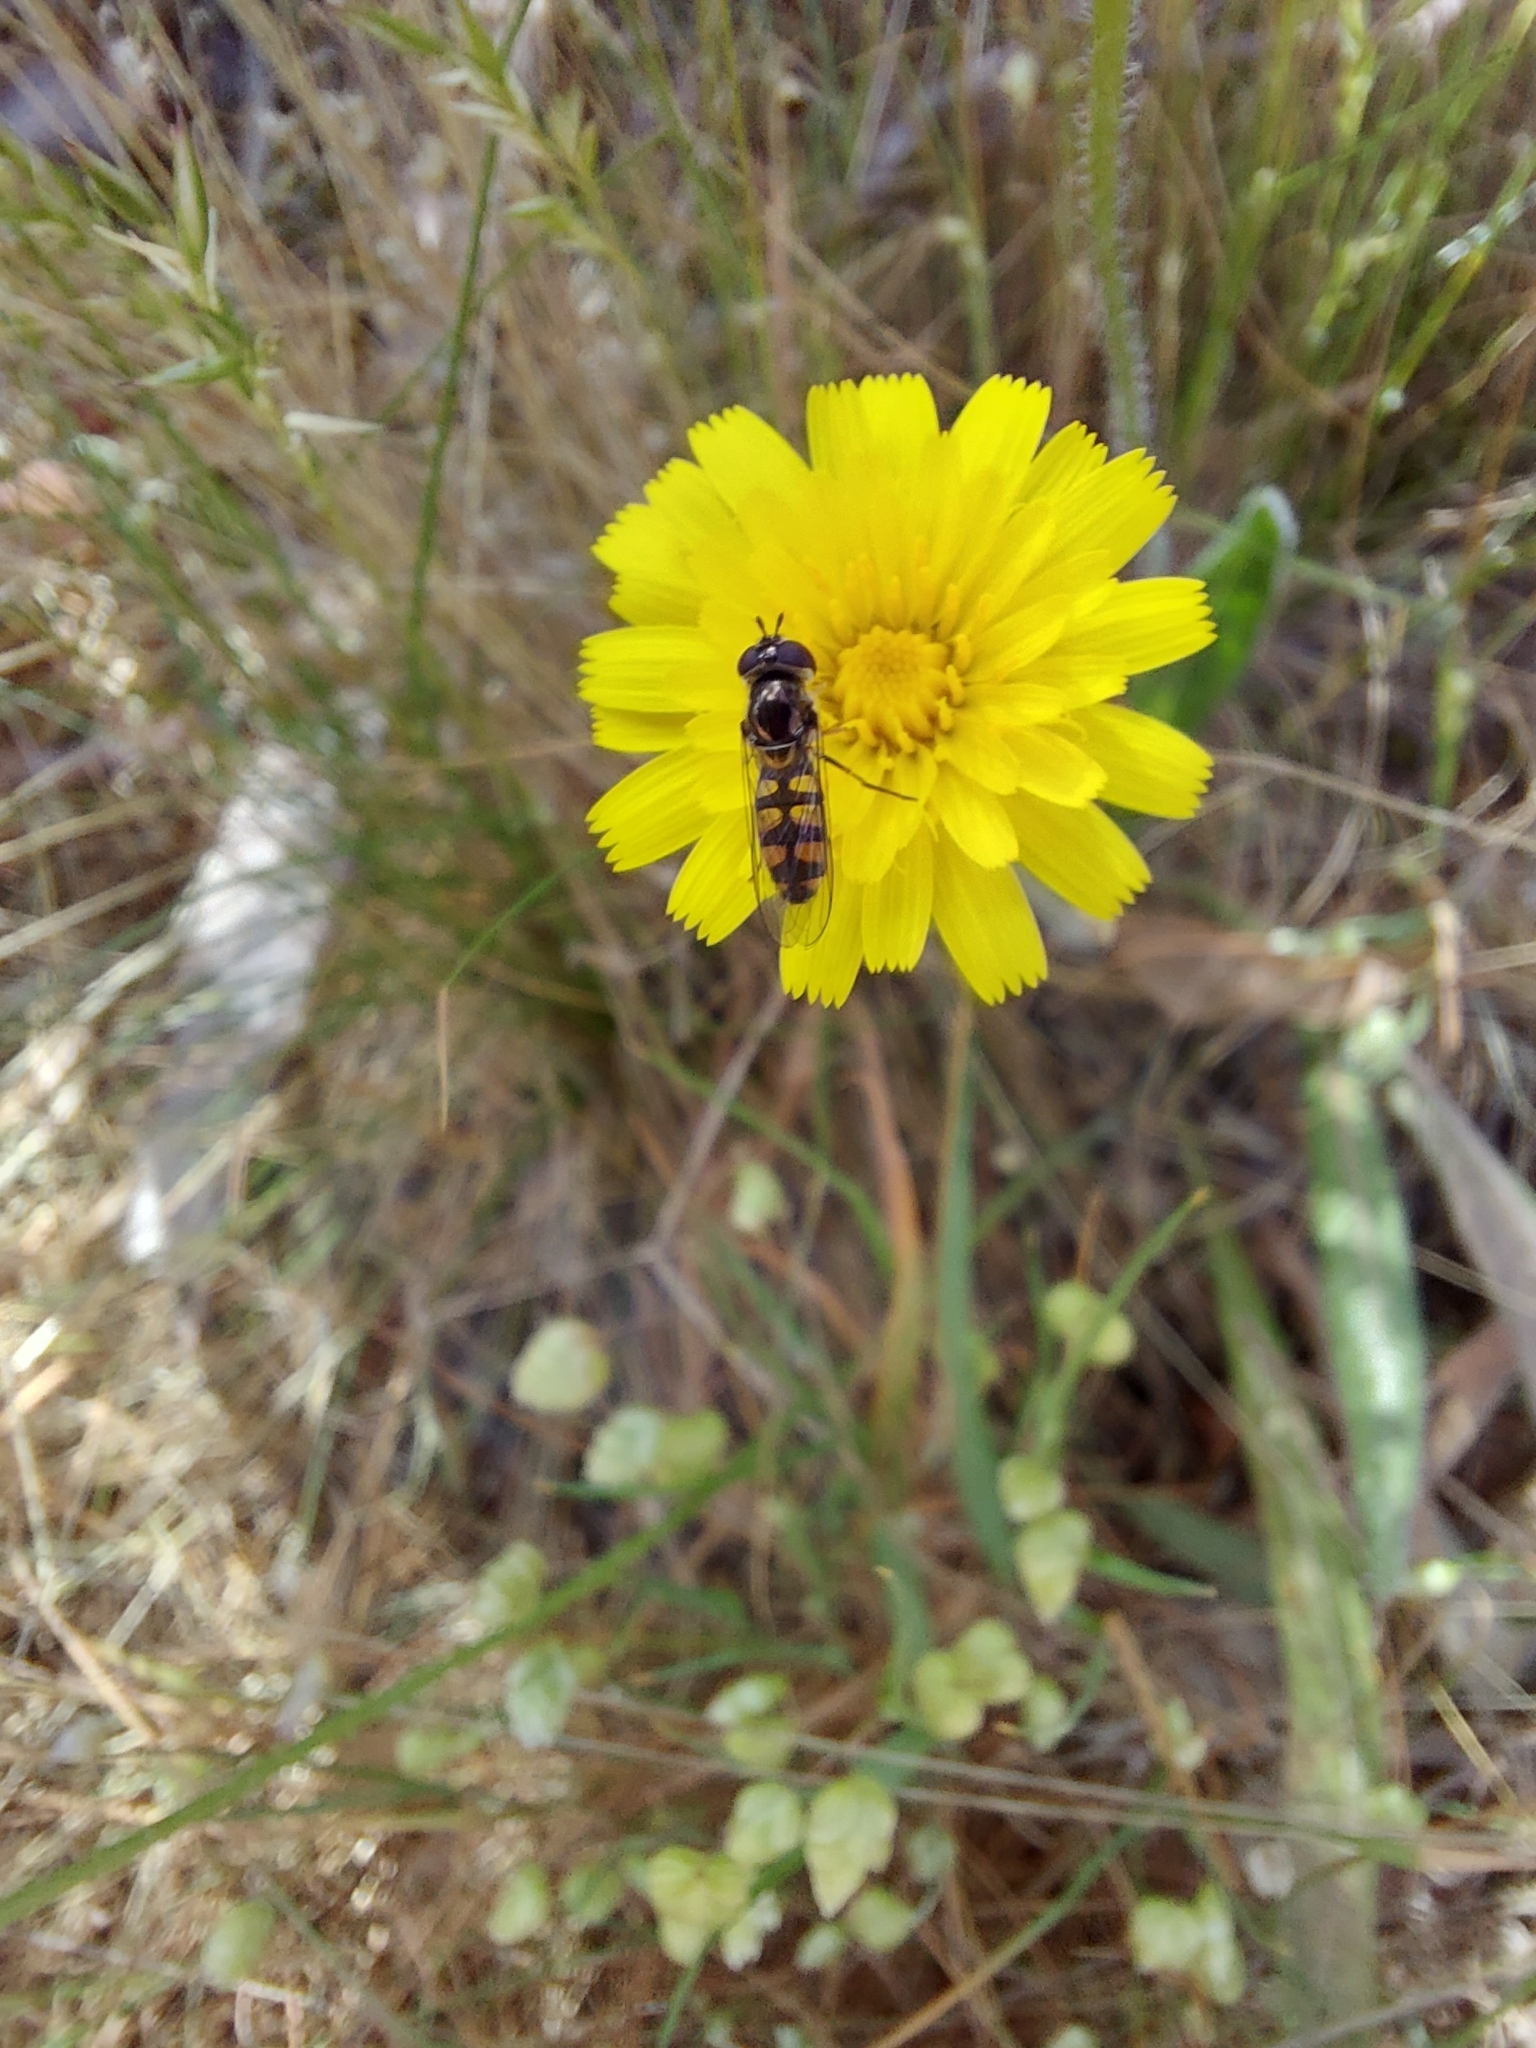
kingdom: Animalia
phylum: Arthropoda
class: Insecta
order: Diptera
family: Syrphidae
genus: Melangyna
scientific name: Melangyna viridiceps
